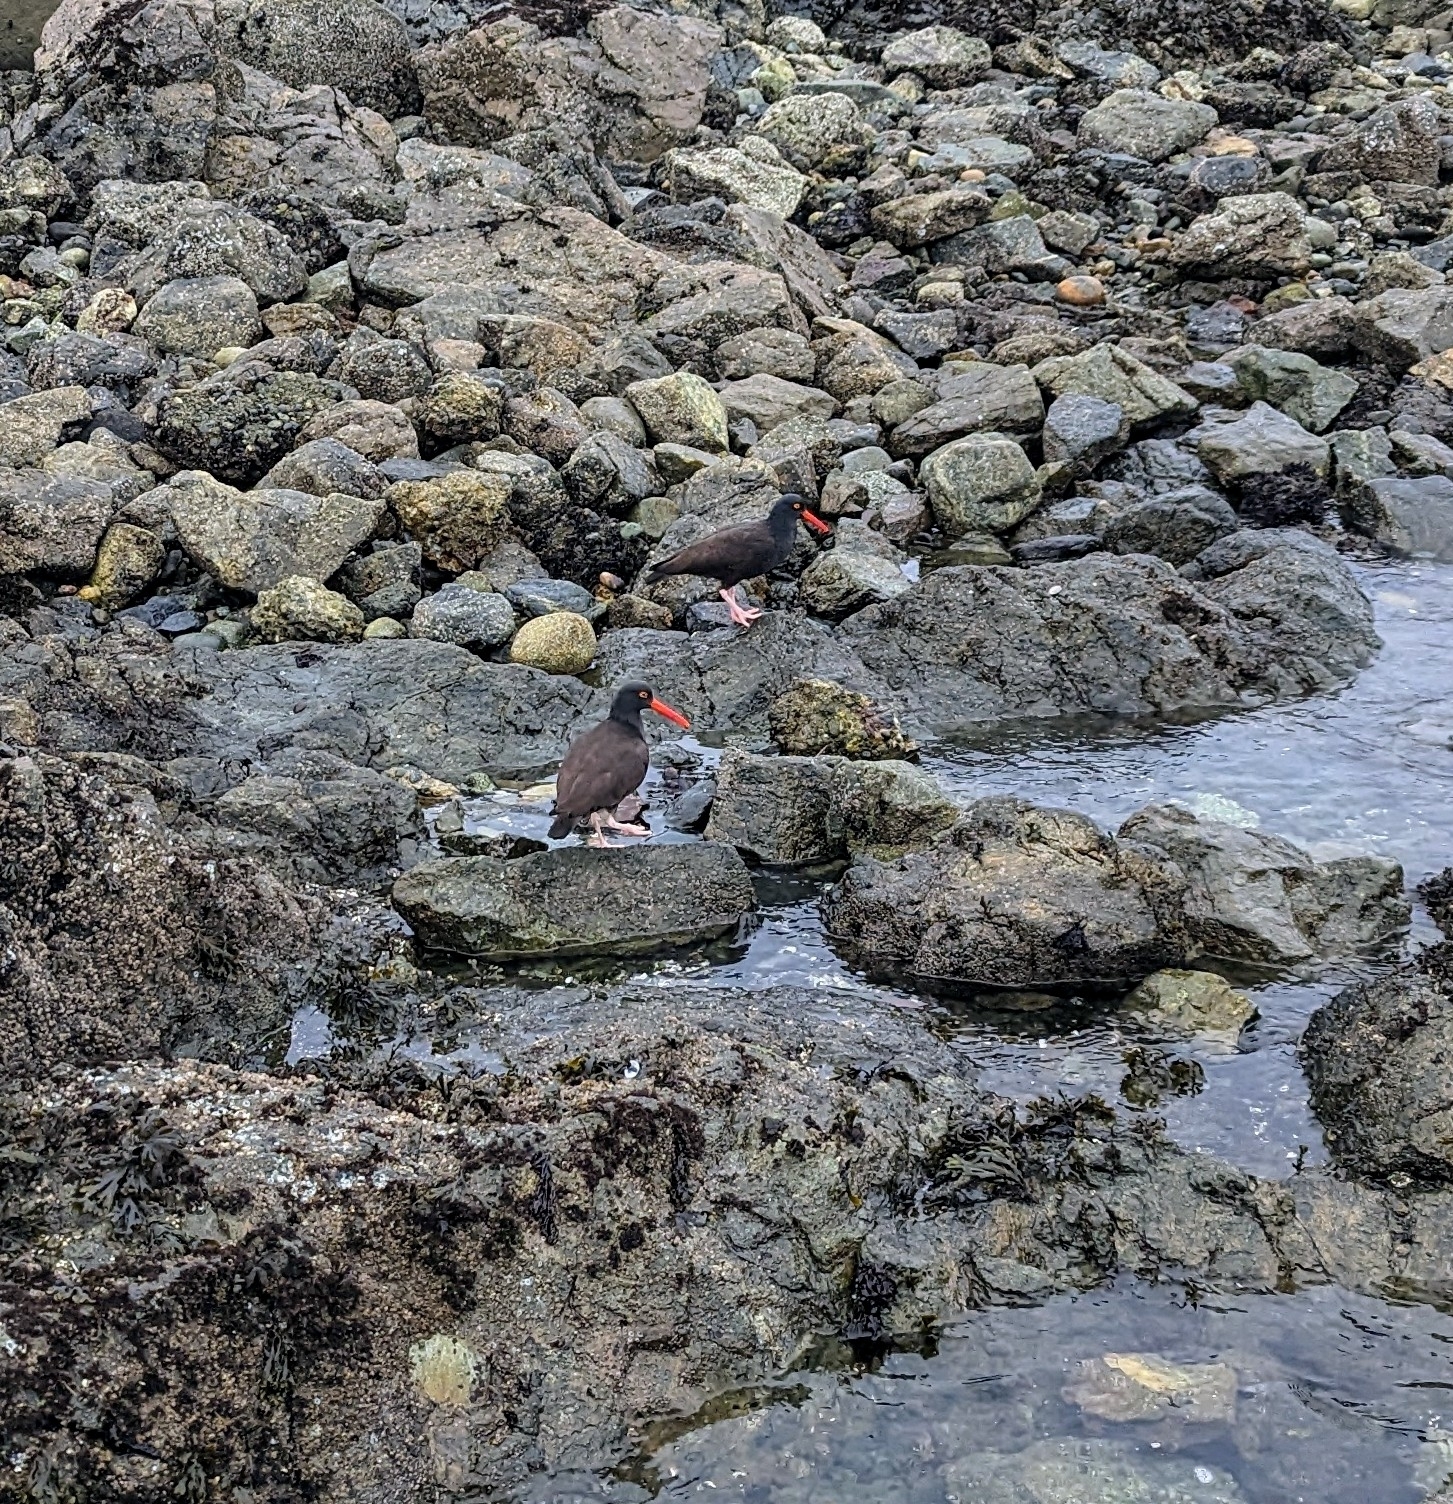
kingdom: Animalia
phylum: Chordata
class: Aves
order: Charadriiformes
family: Haematopodidae
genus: Haematopus
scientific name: Haematopus bachmani
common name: Black oystercatcher
